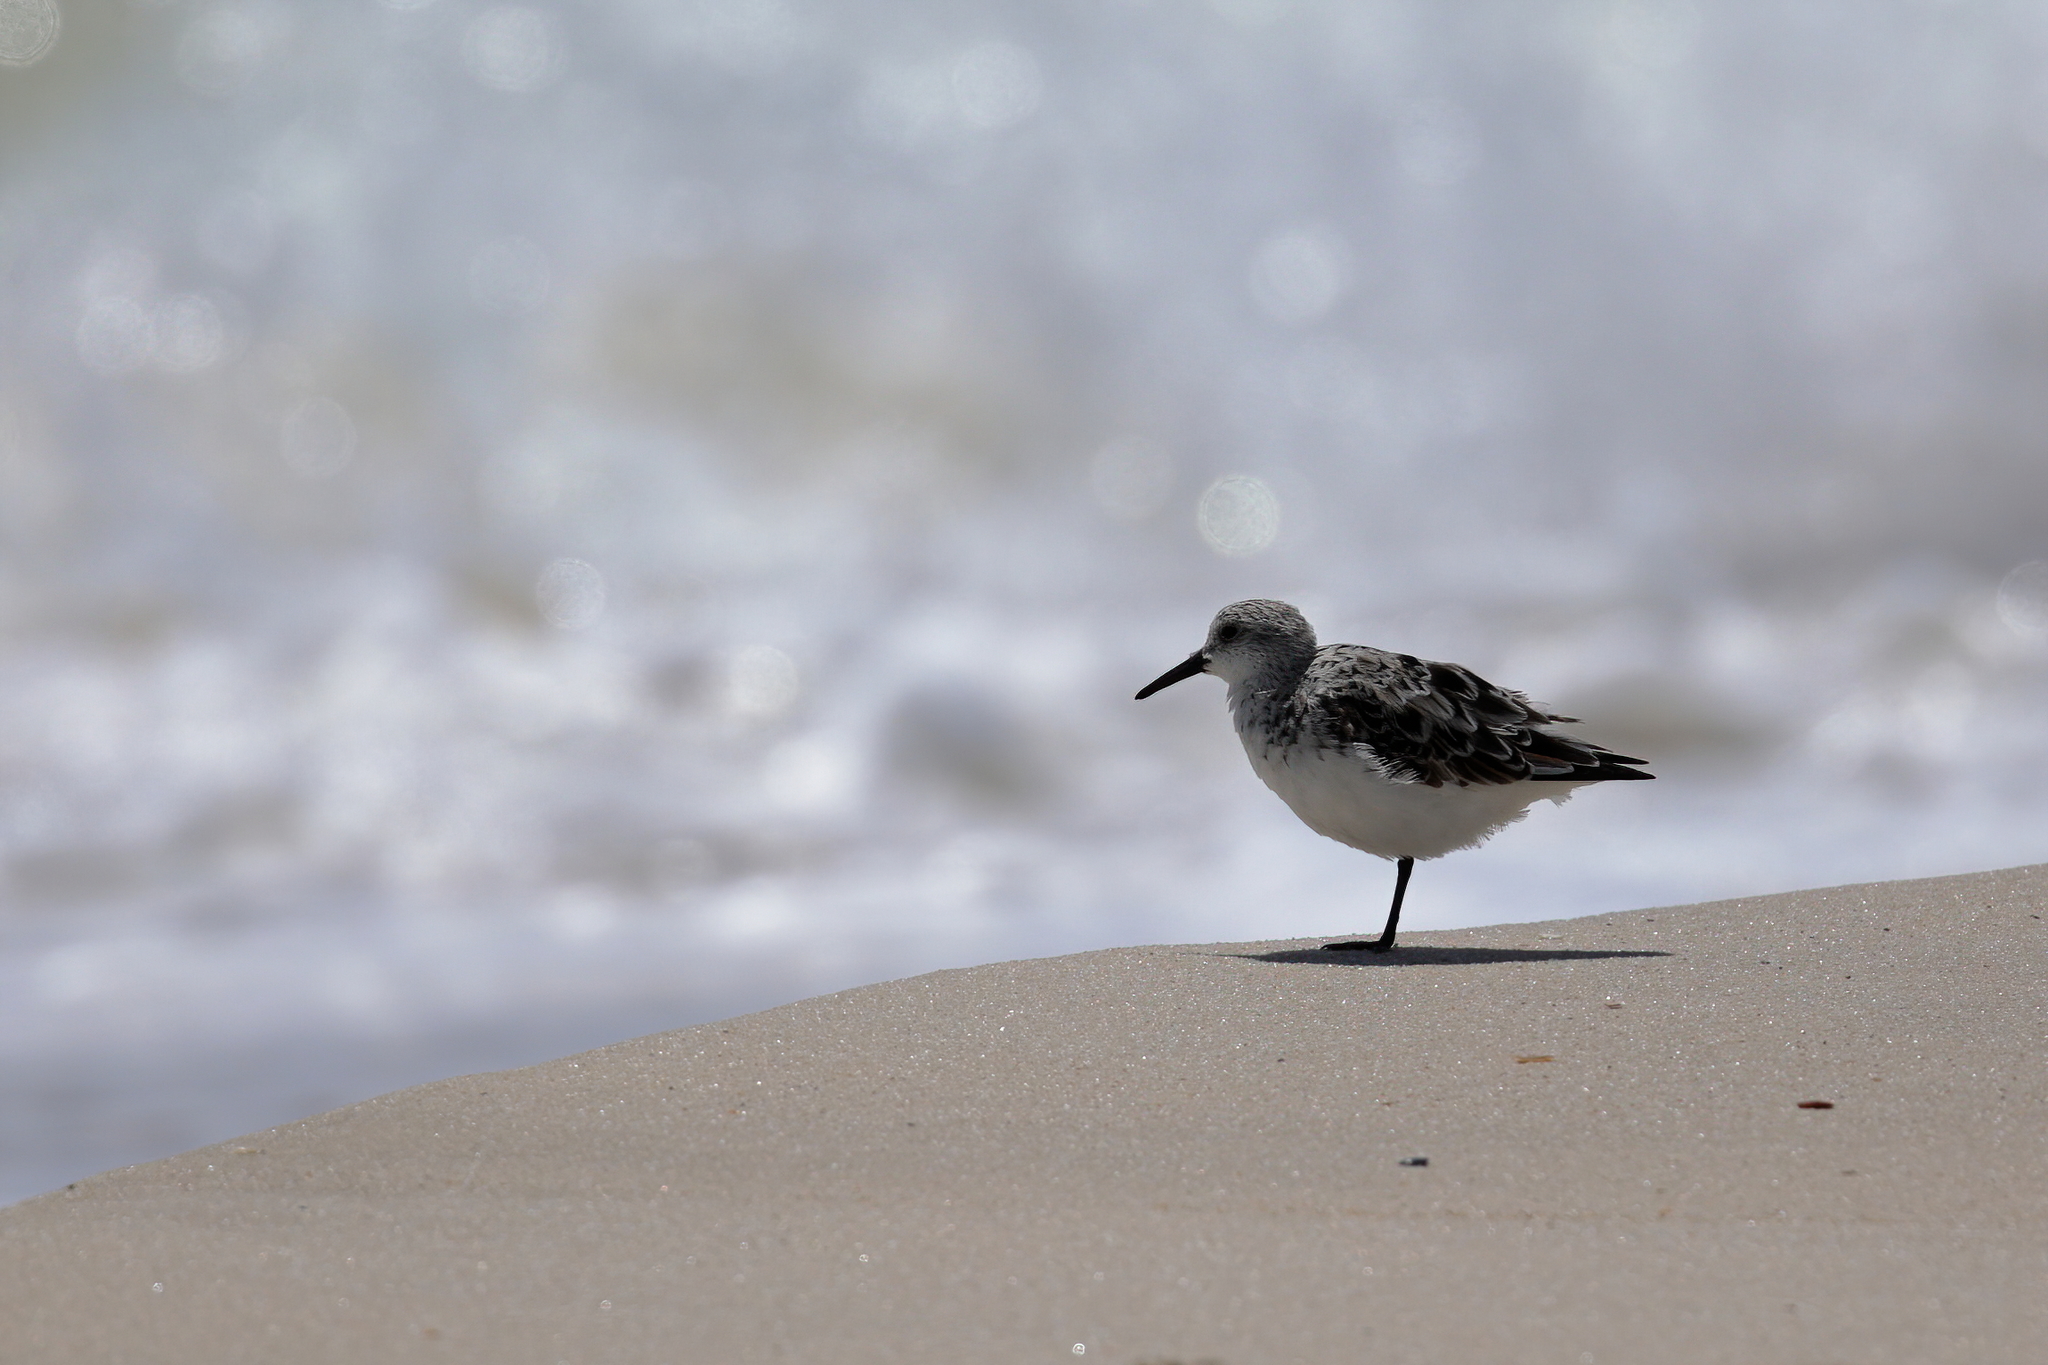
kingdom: Animalia
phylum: Chordata
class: Aves
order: Charadriiformes
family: Scolopacidae
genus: Calidris
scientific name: Calidris alba
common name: Sanderling
